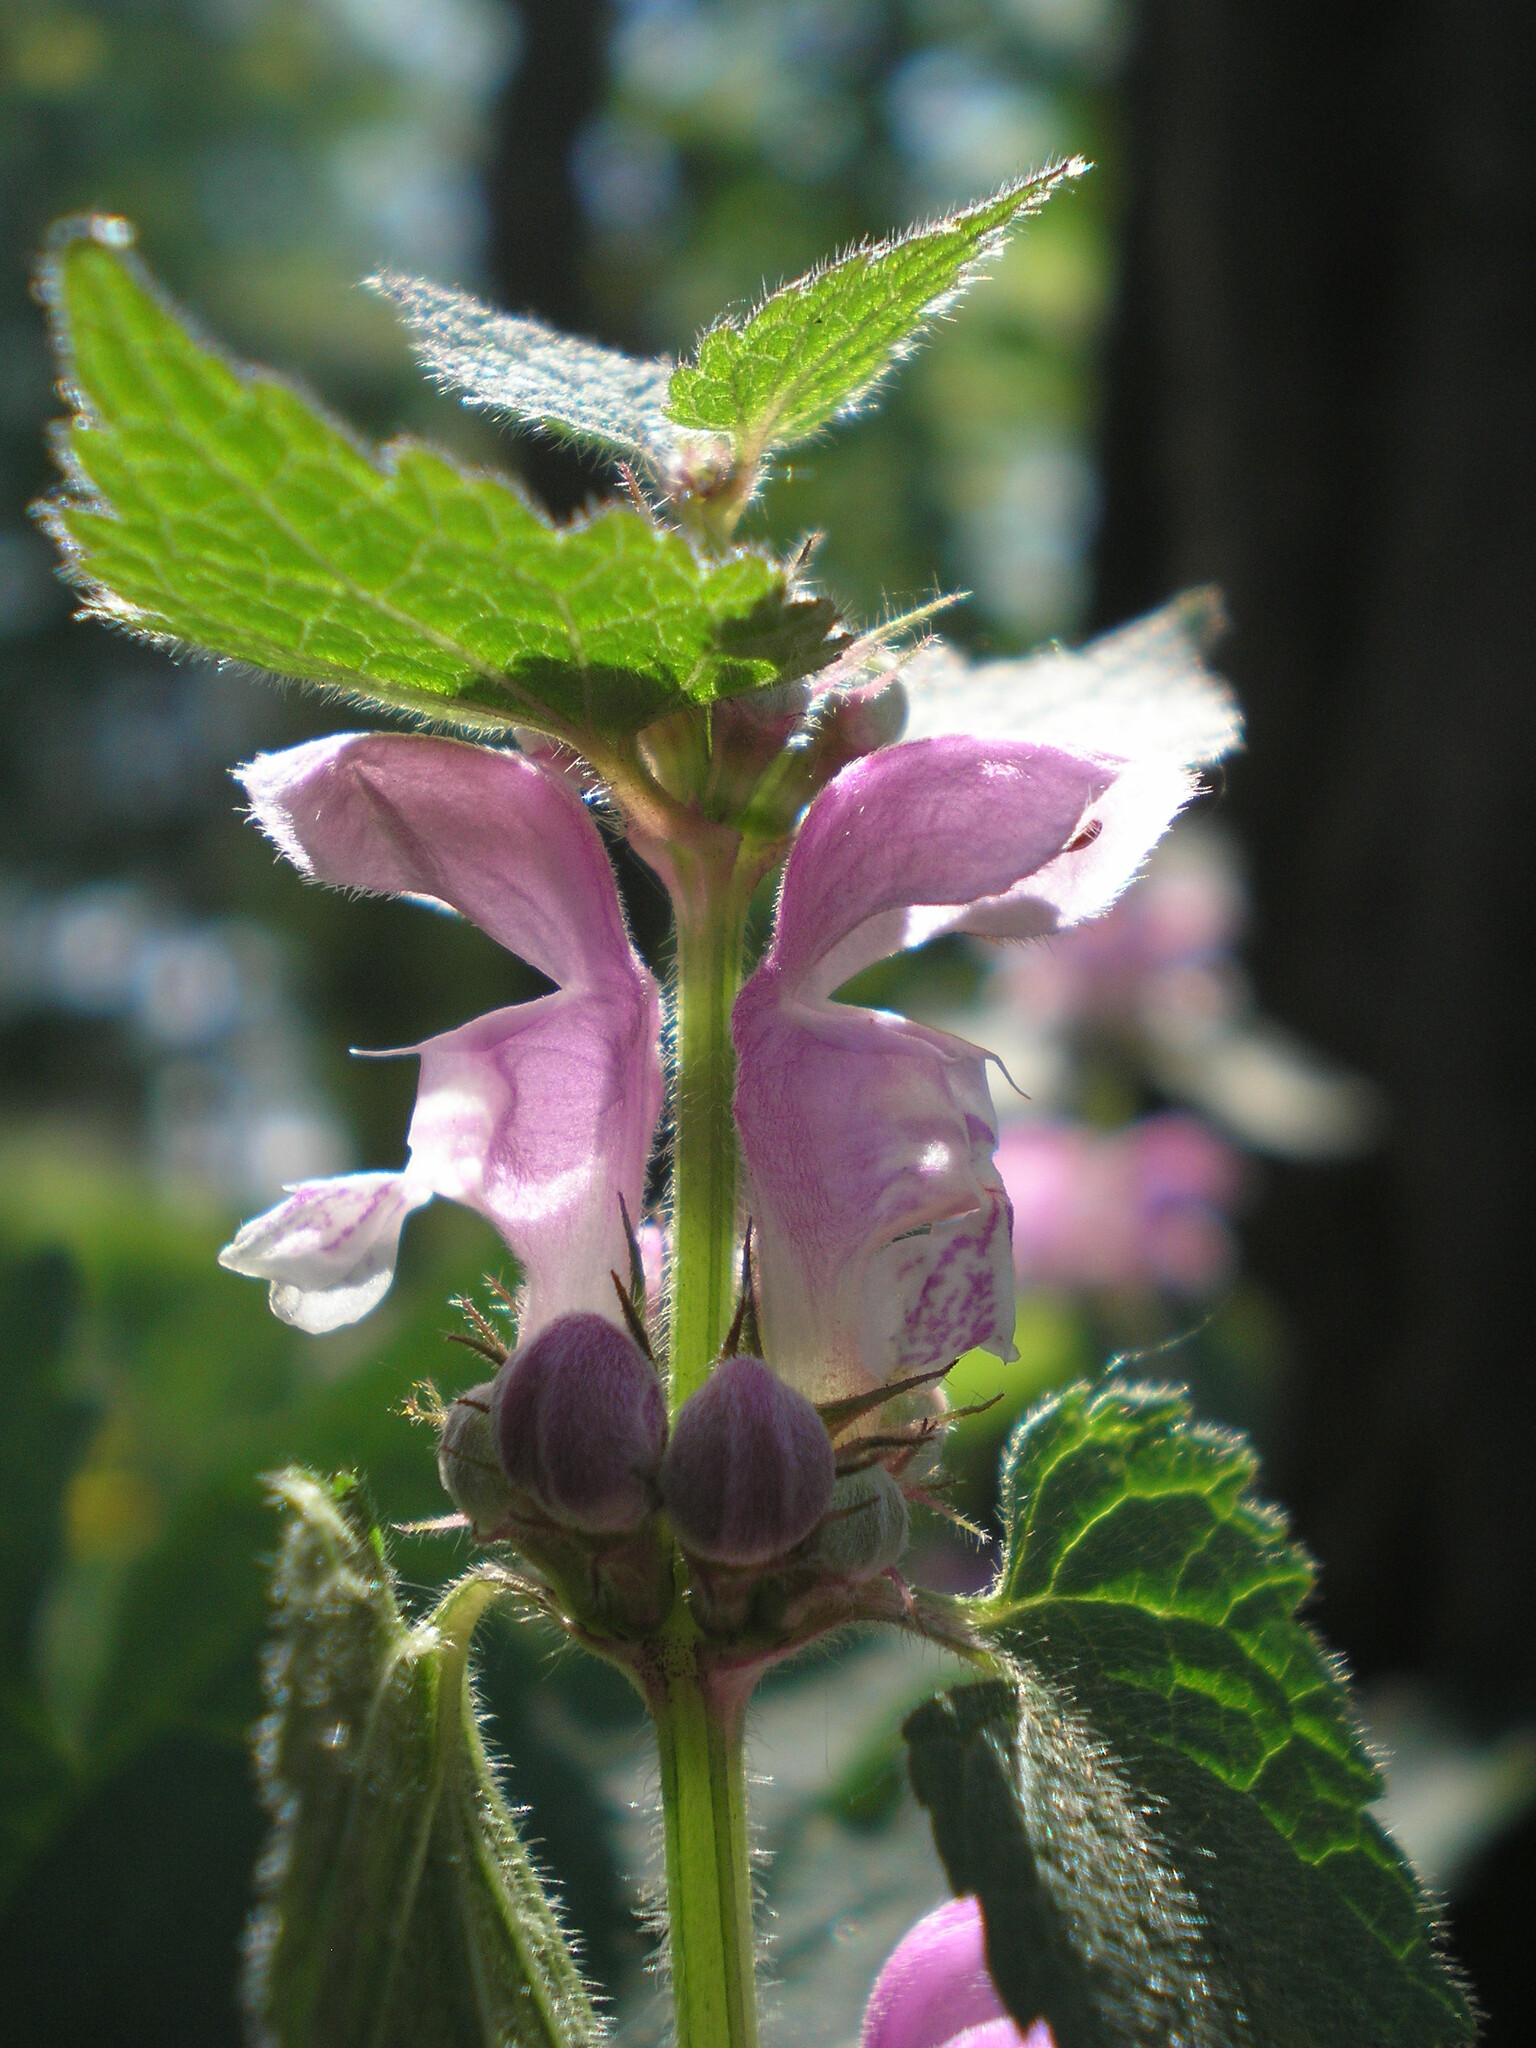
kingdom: Plantae
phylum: Tracheophyta
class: Magnoliopsida
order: Lamiales
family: Lamiaceae
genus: Lamium
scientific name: Lamium maculatum
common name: Spotted dead-nettle
